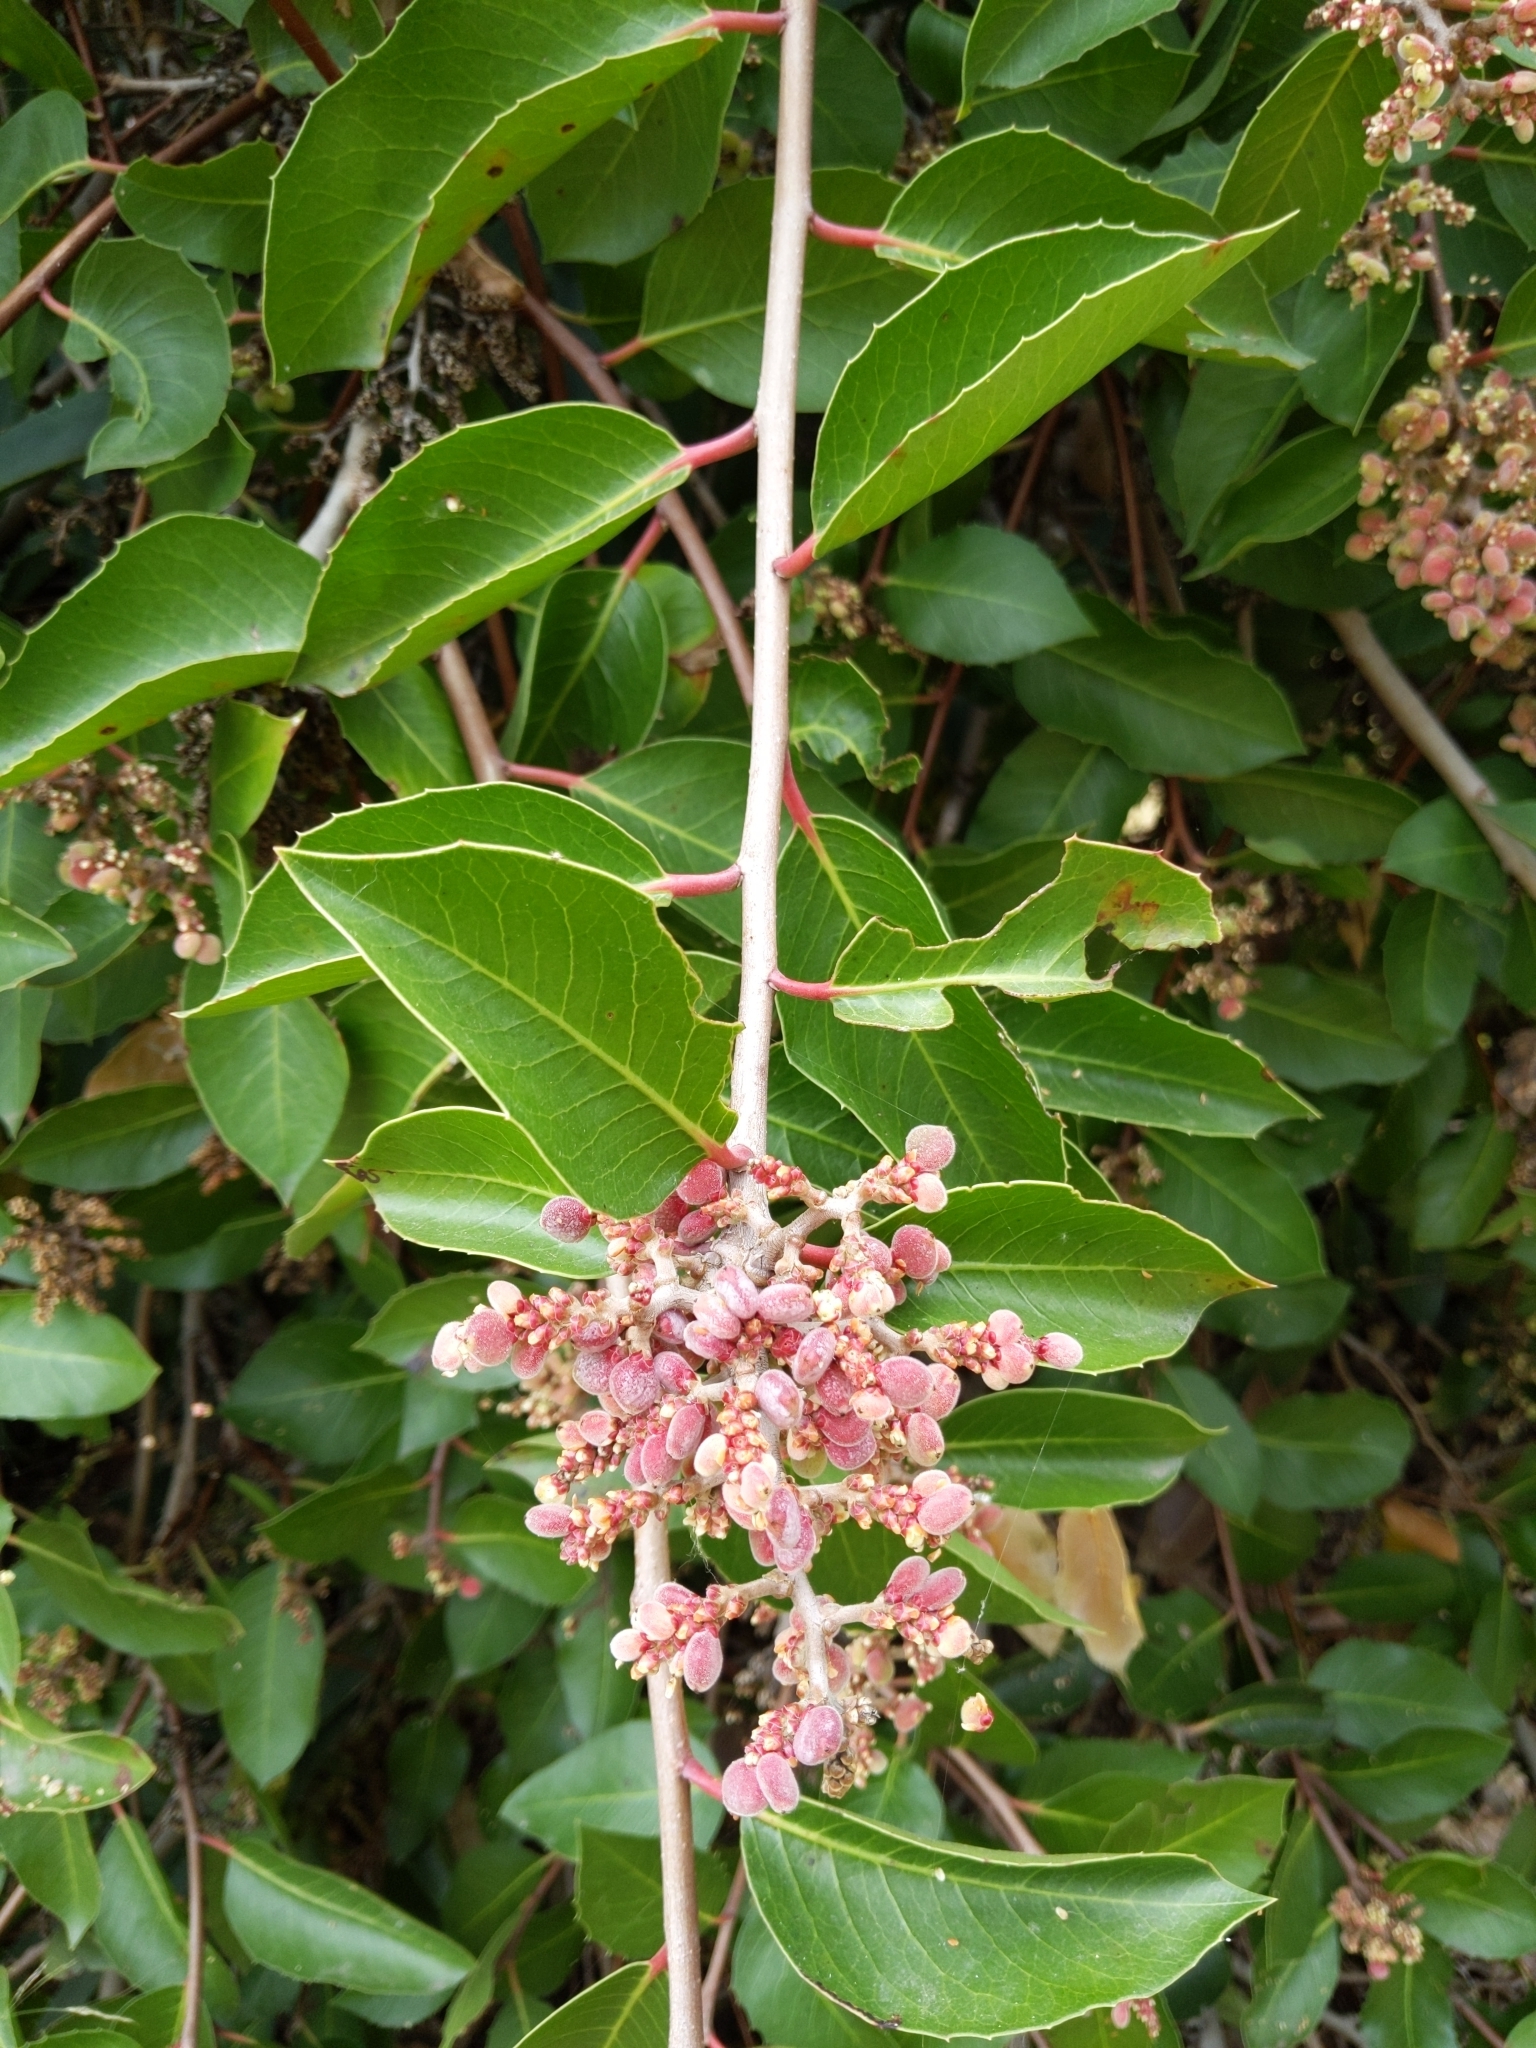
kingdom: Plantae
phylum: Tracheophyta
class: Magnoliopsida
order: Sapindales
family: Anacardiaceae
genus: Rhus
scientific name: Rhus ovata
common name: Sugar sumac
